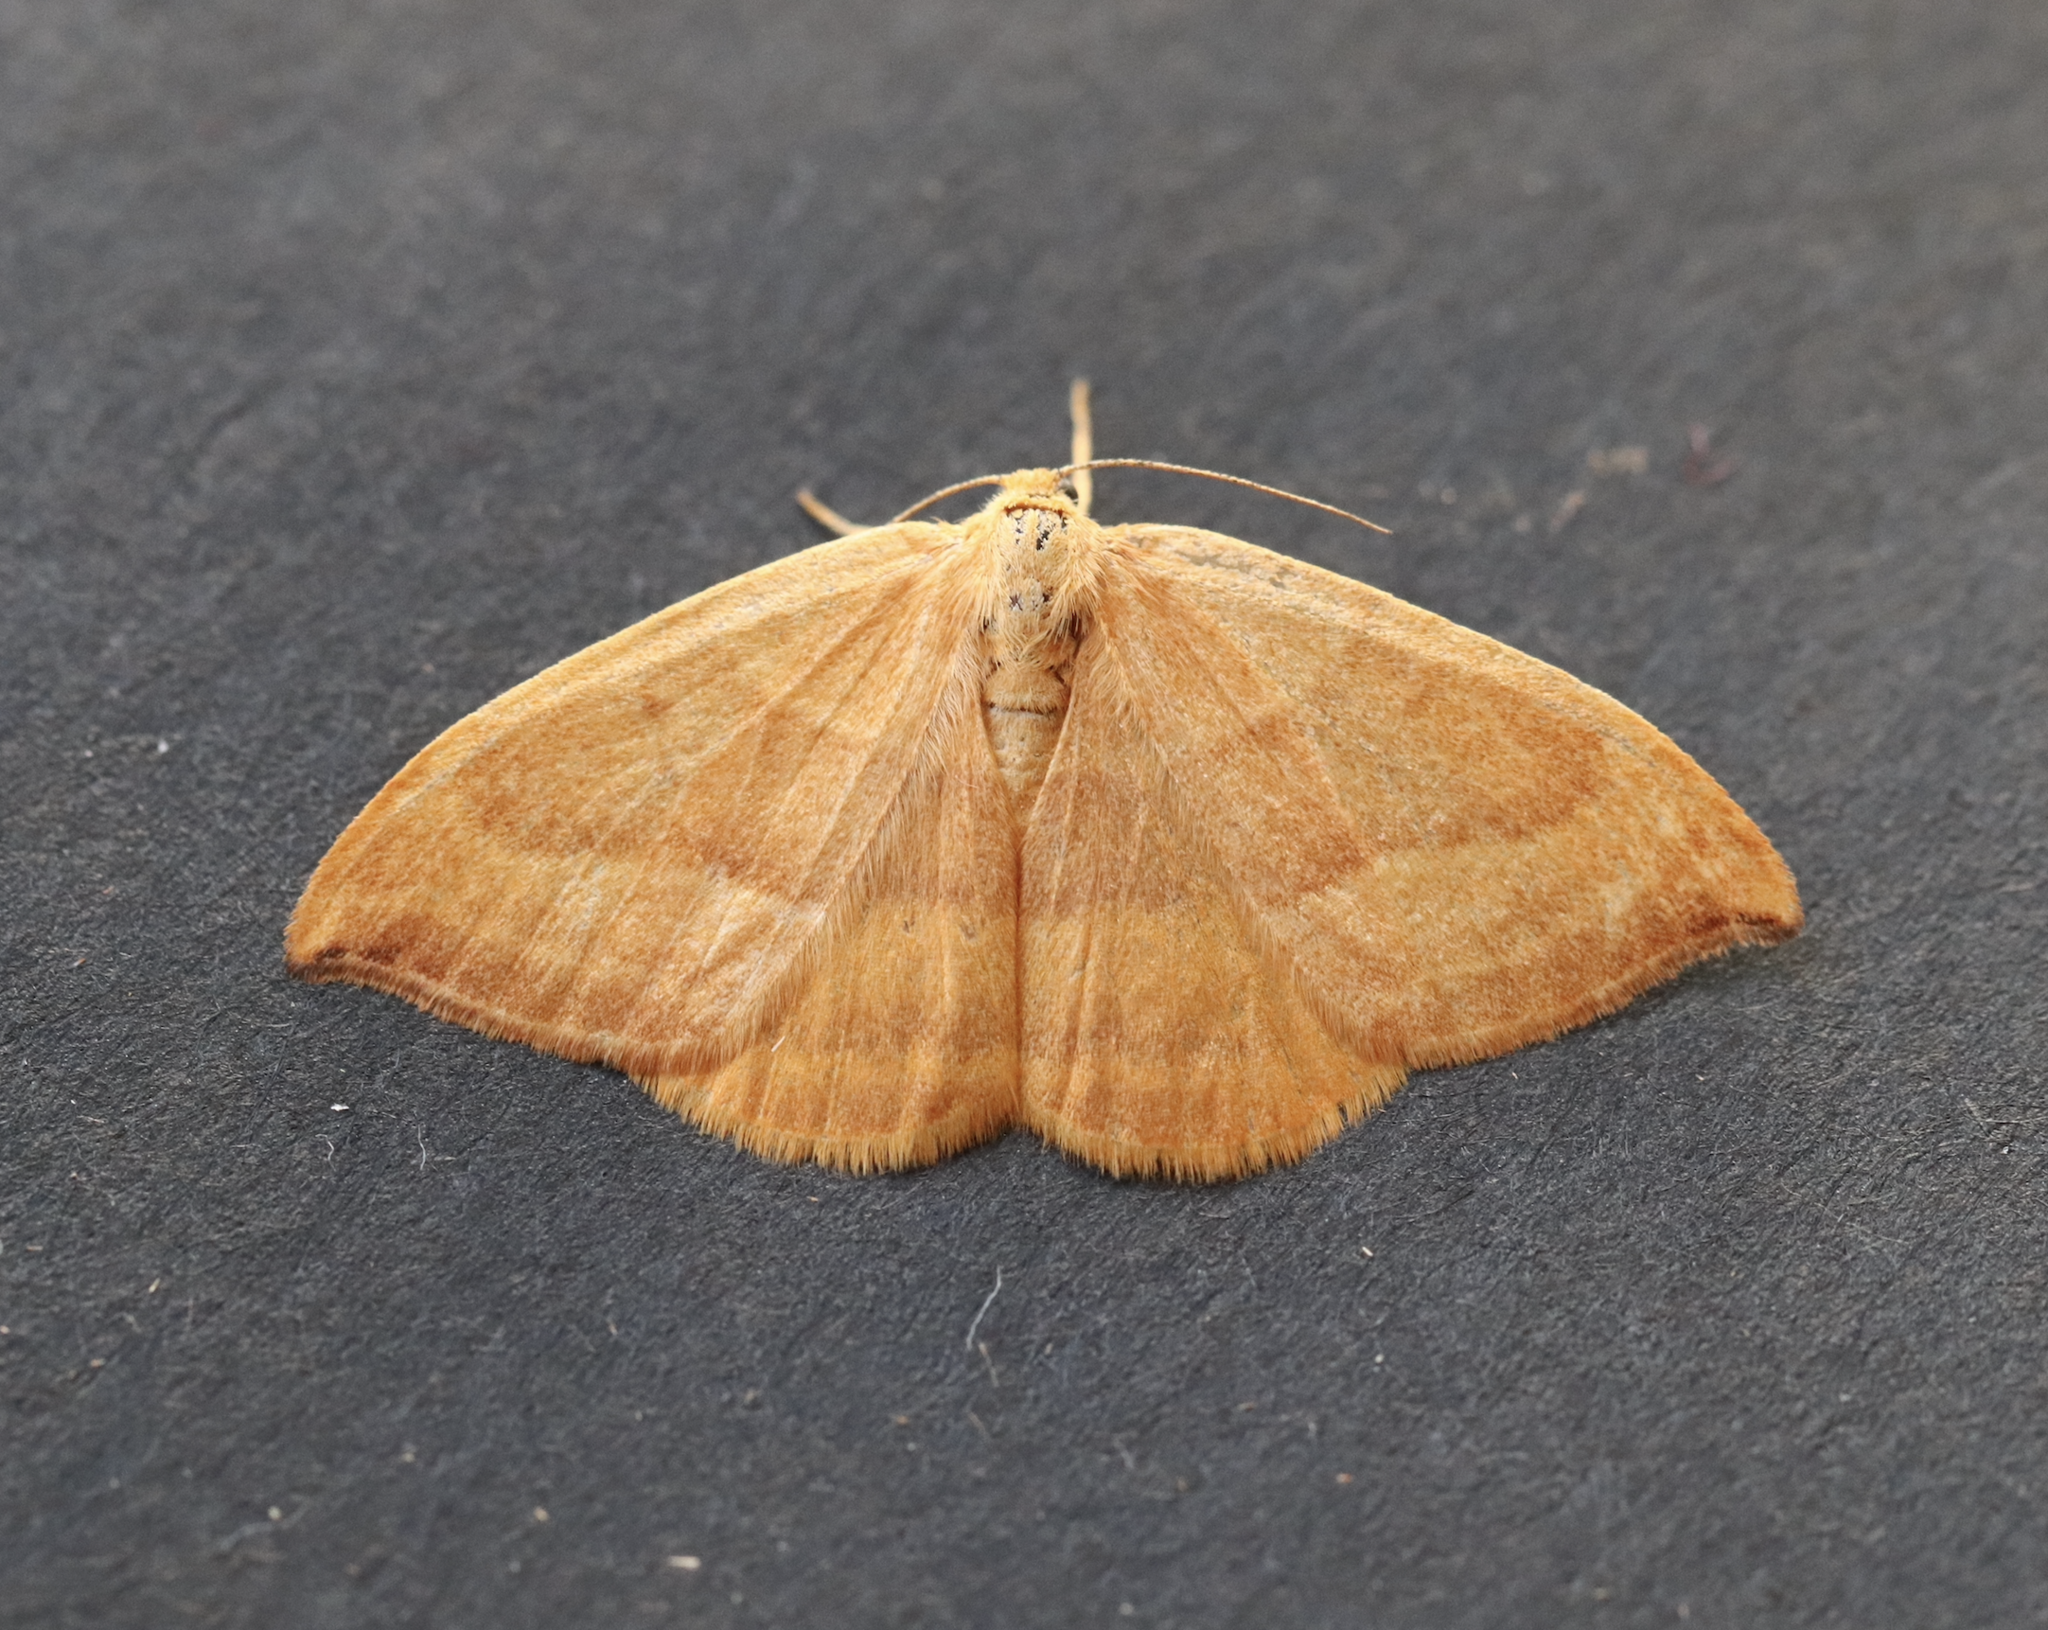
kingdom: Animalia
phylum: Arthropoda
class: Insecta
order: Lepidoptera
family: Drepanidae
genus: Watsonalla
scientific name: Watsonalla cultraria
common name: Barred hook-tip
